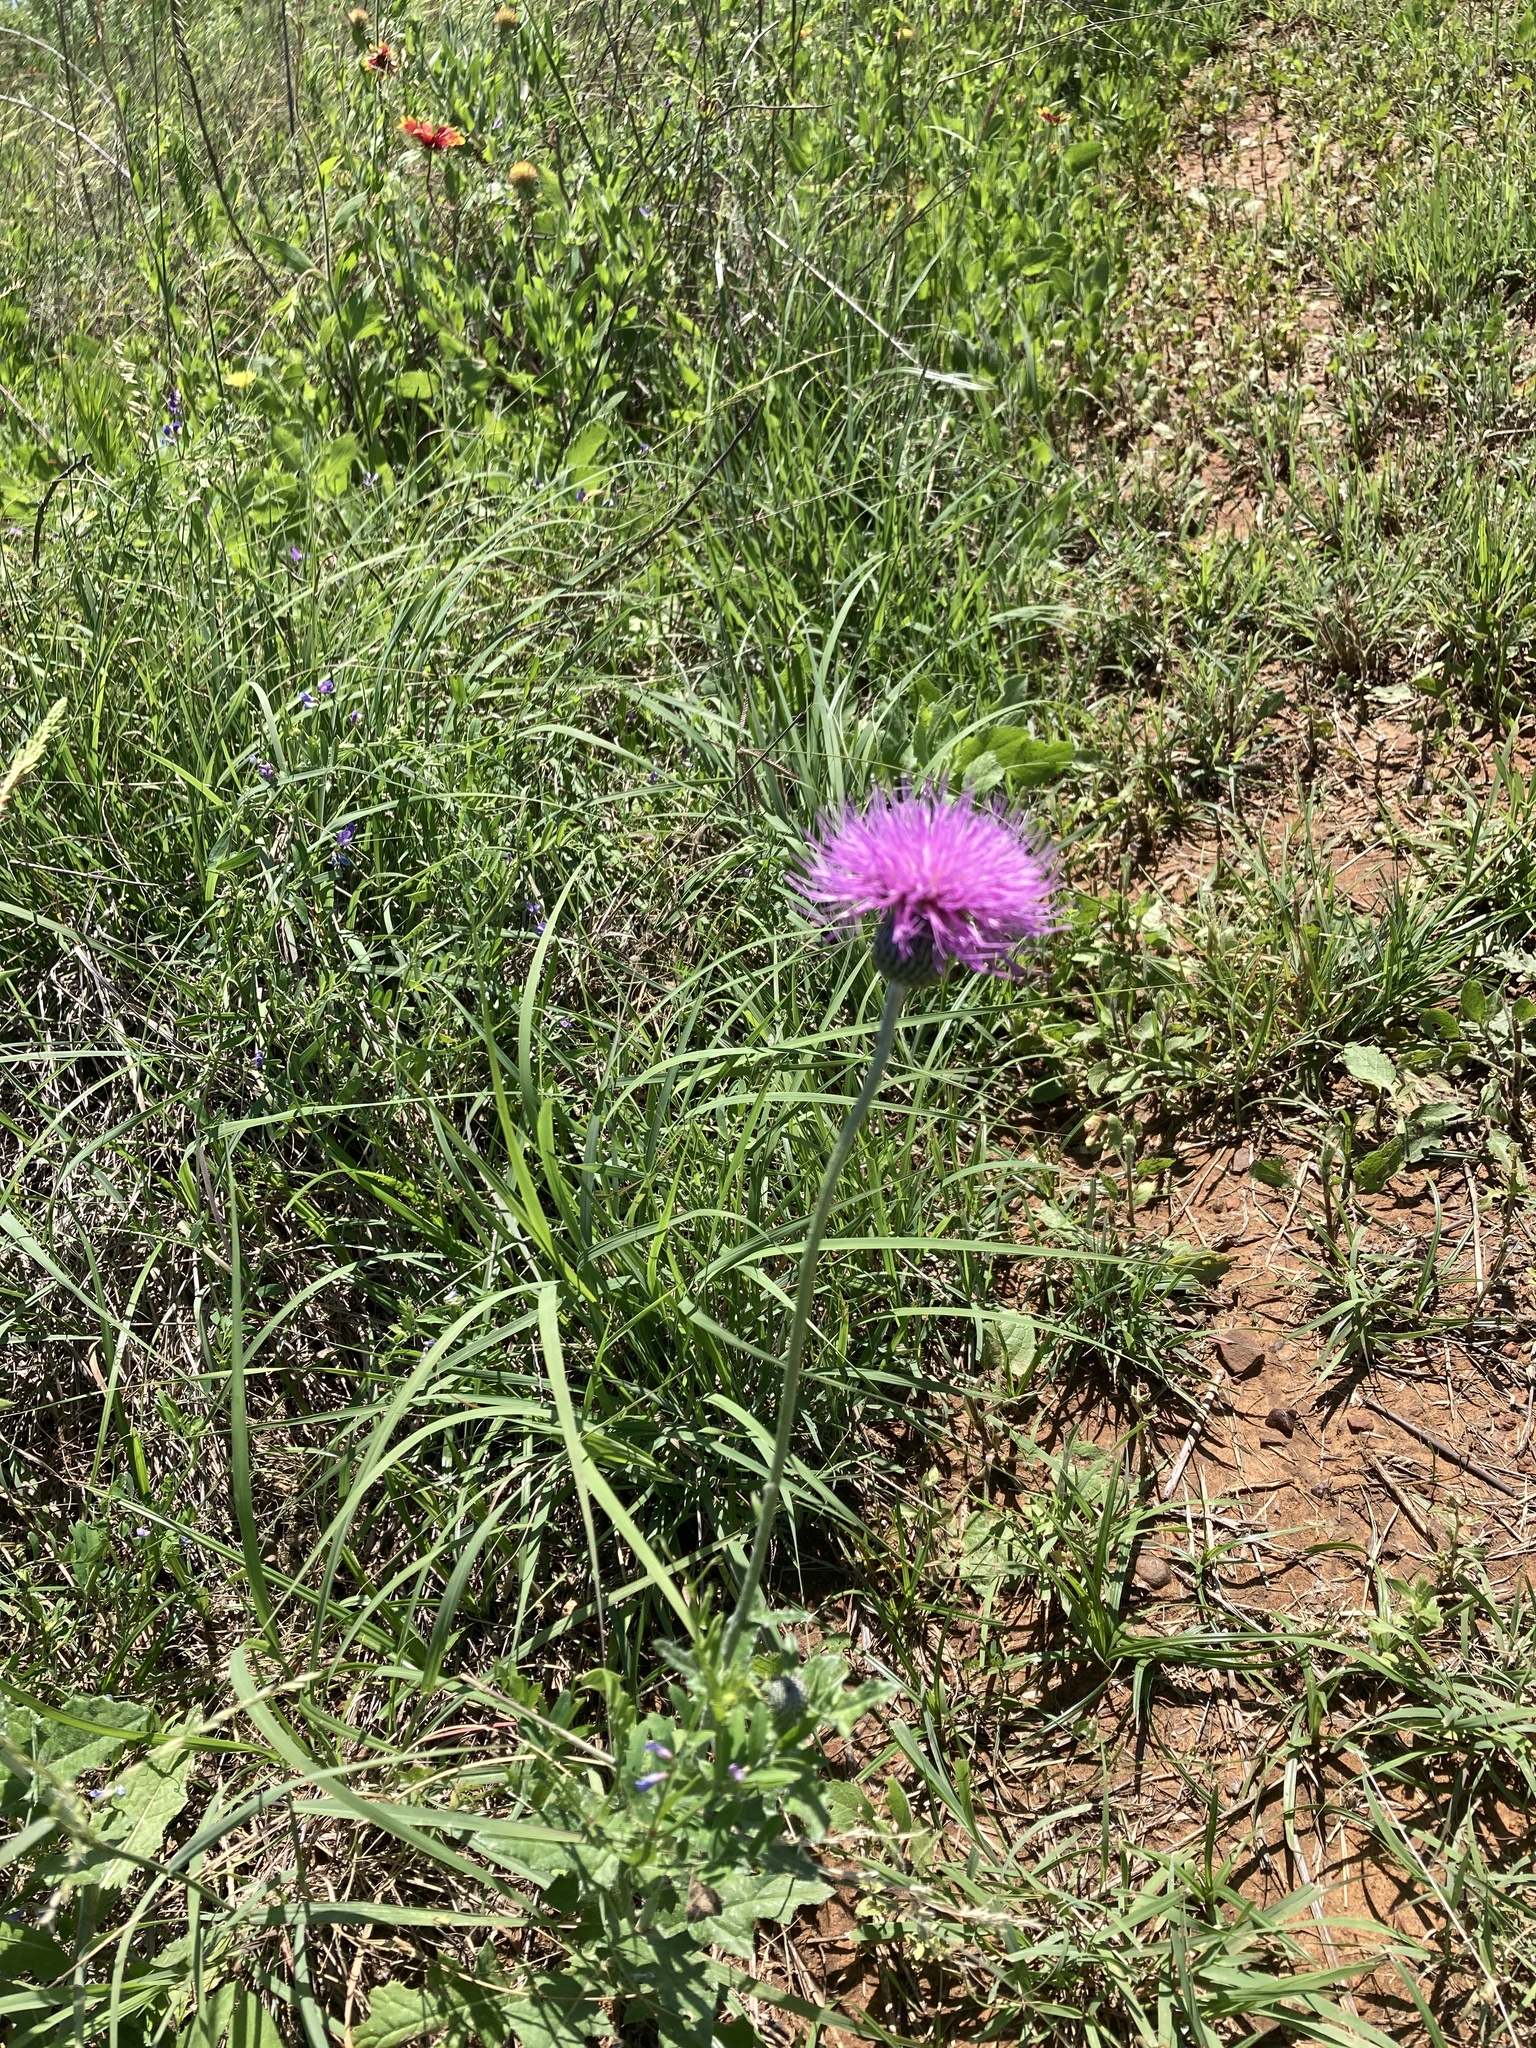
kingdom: Plantae
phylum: Tracheophyta
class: Magnoliopsida
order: Asterales
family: Asteraceae
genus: Cirsium
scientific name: Cirsium texanum
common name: Texas purple thistle
